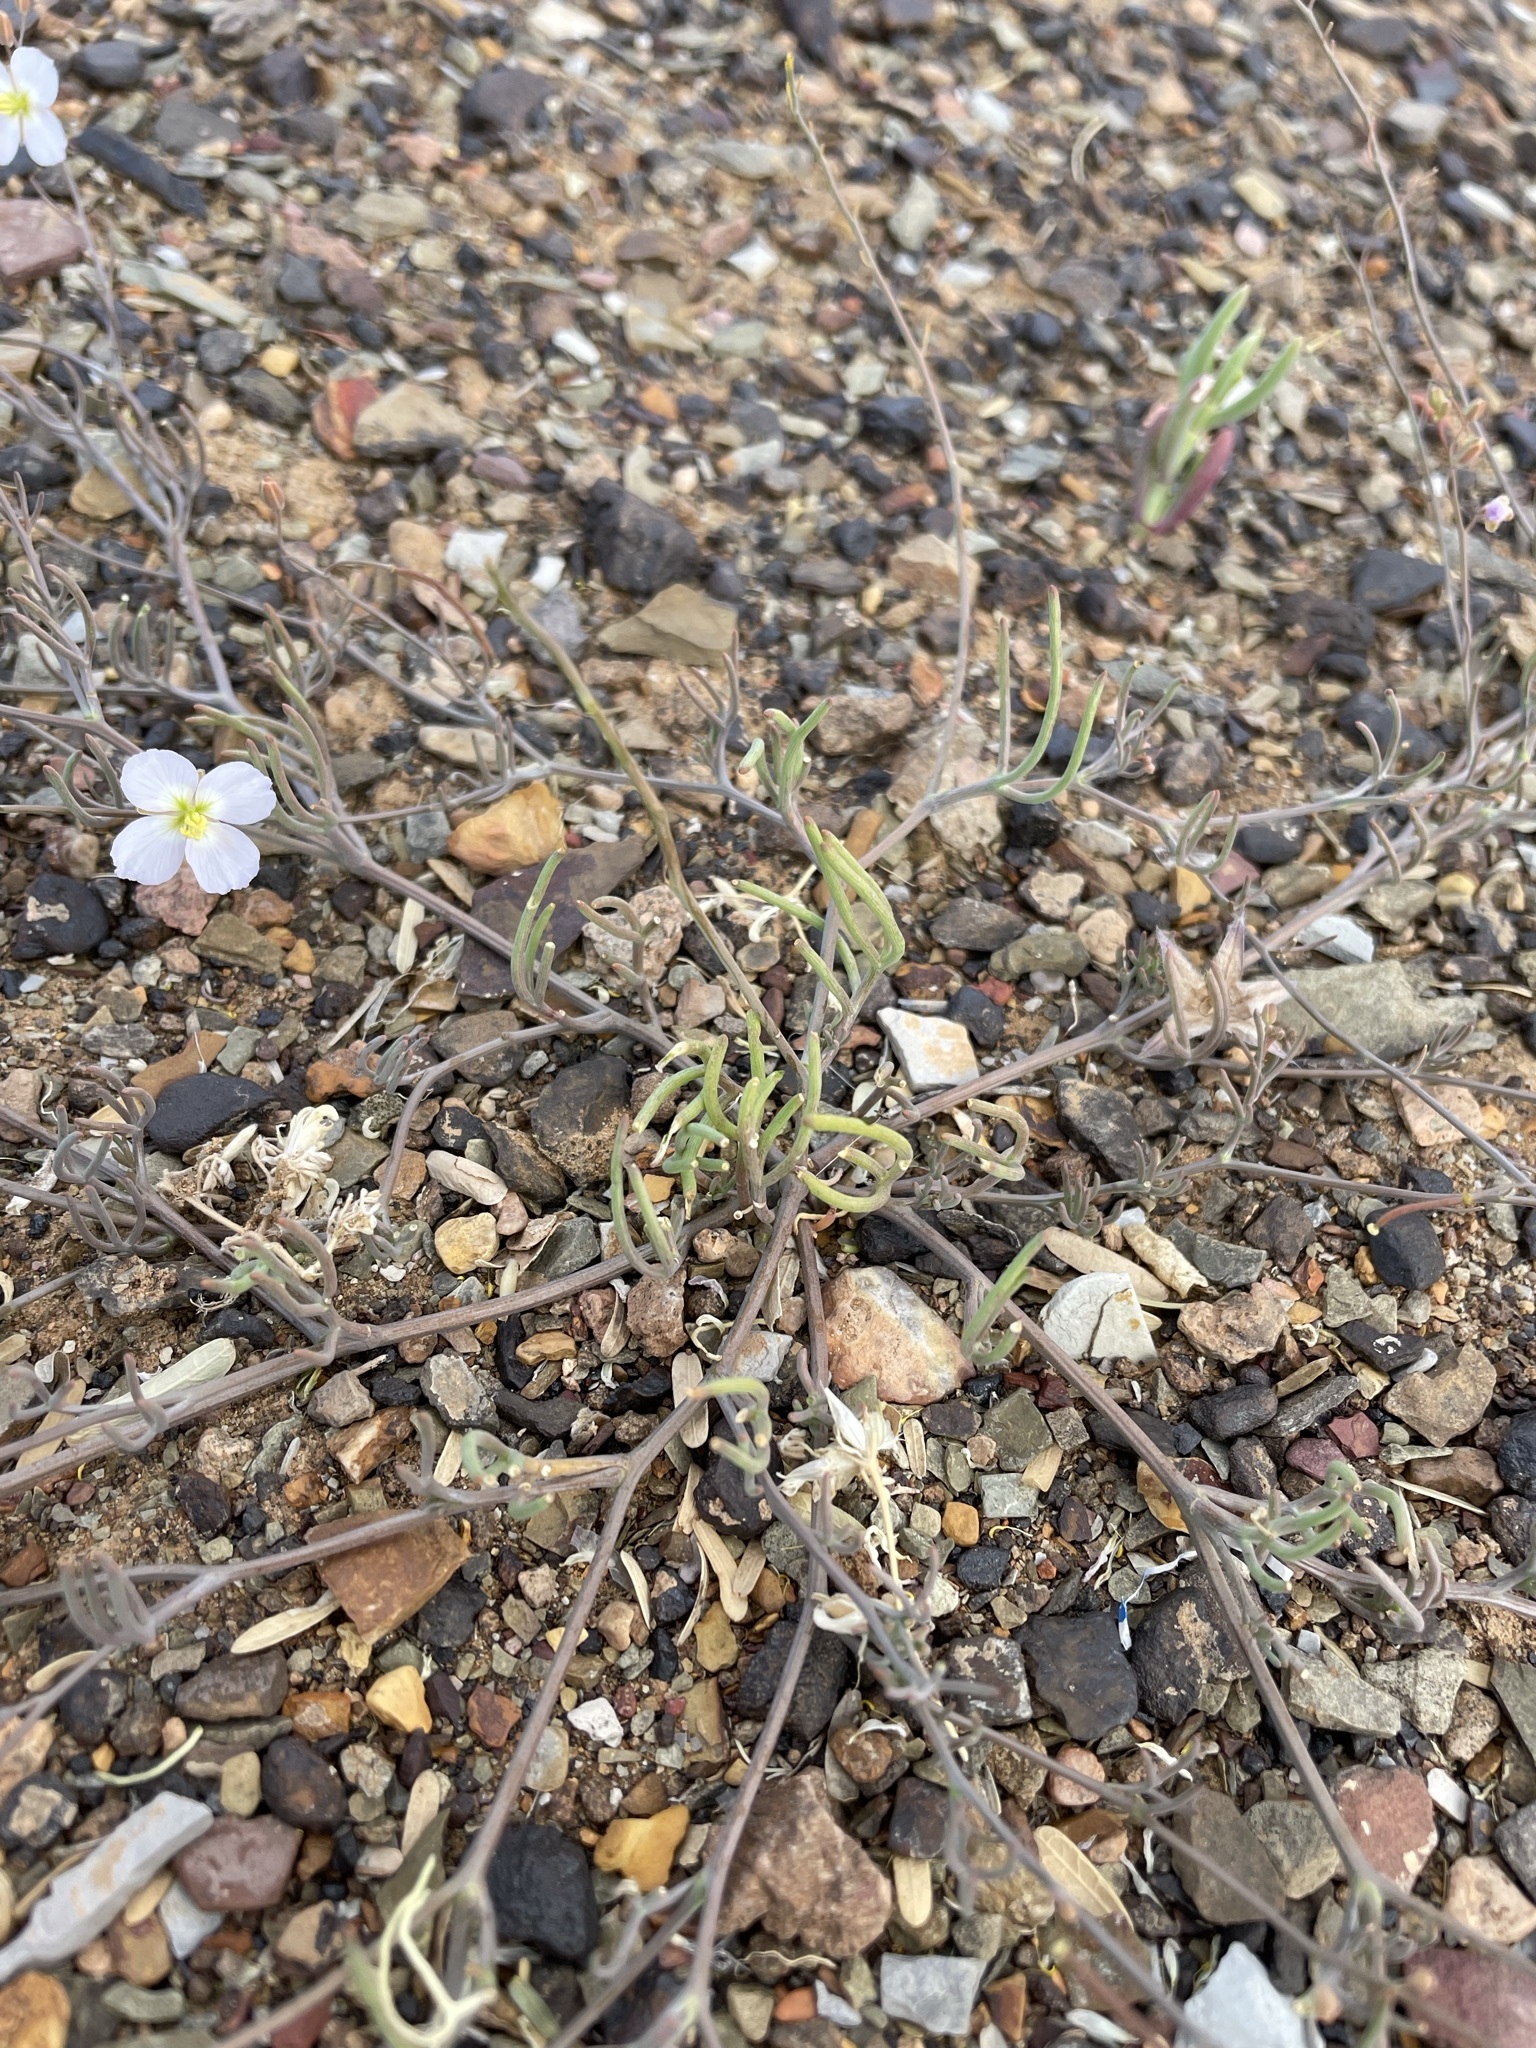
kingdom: Plantae
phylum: Tracheophyta
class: Magnoliopsida
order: Brassicales
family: Brassicaceae
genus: Heliophila
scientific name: Heliophila deserticola
